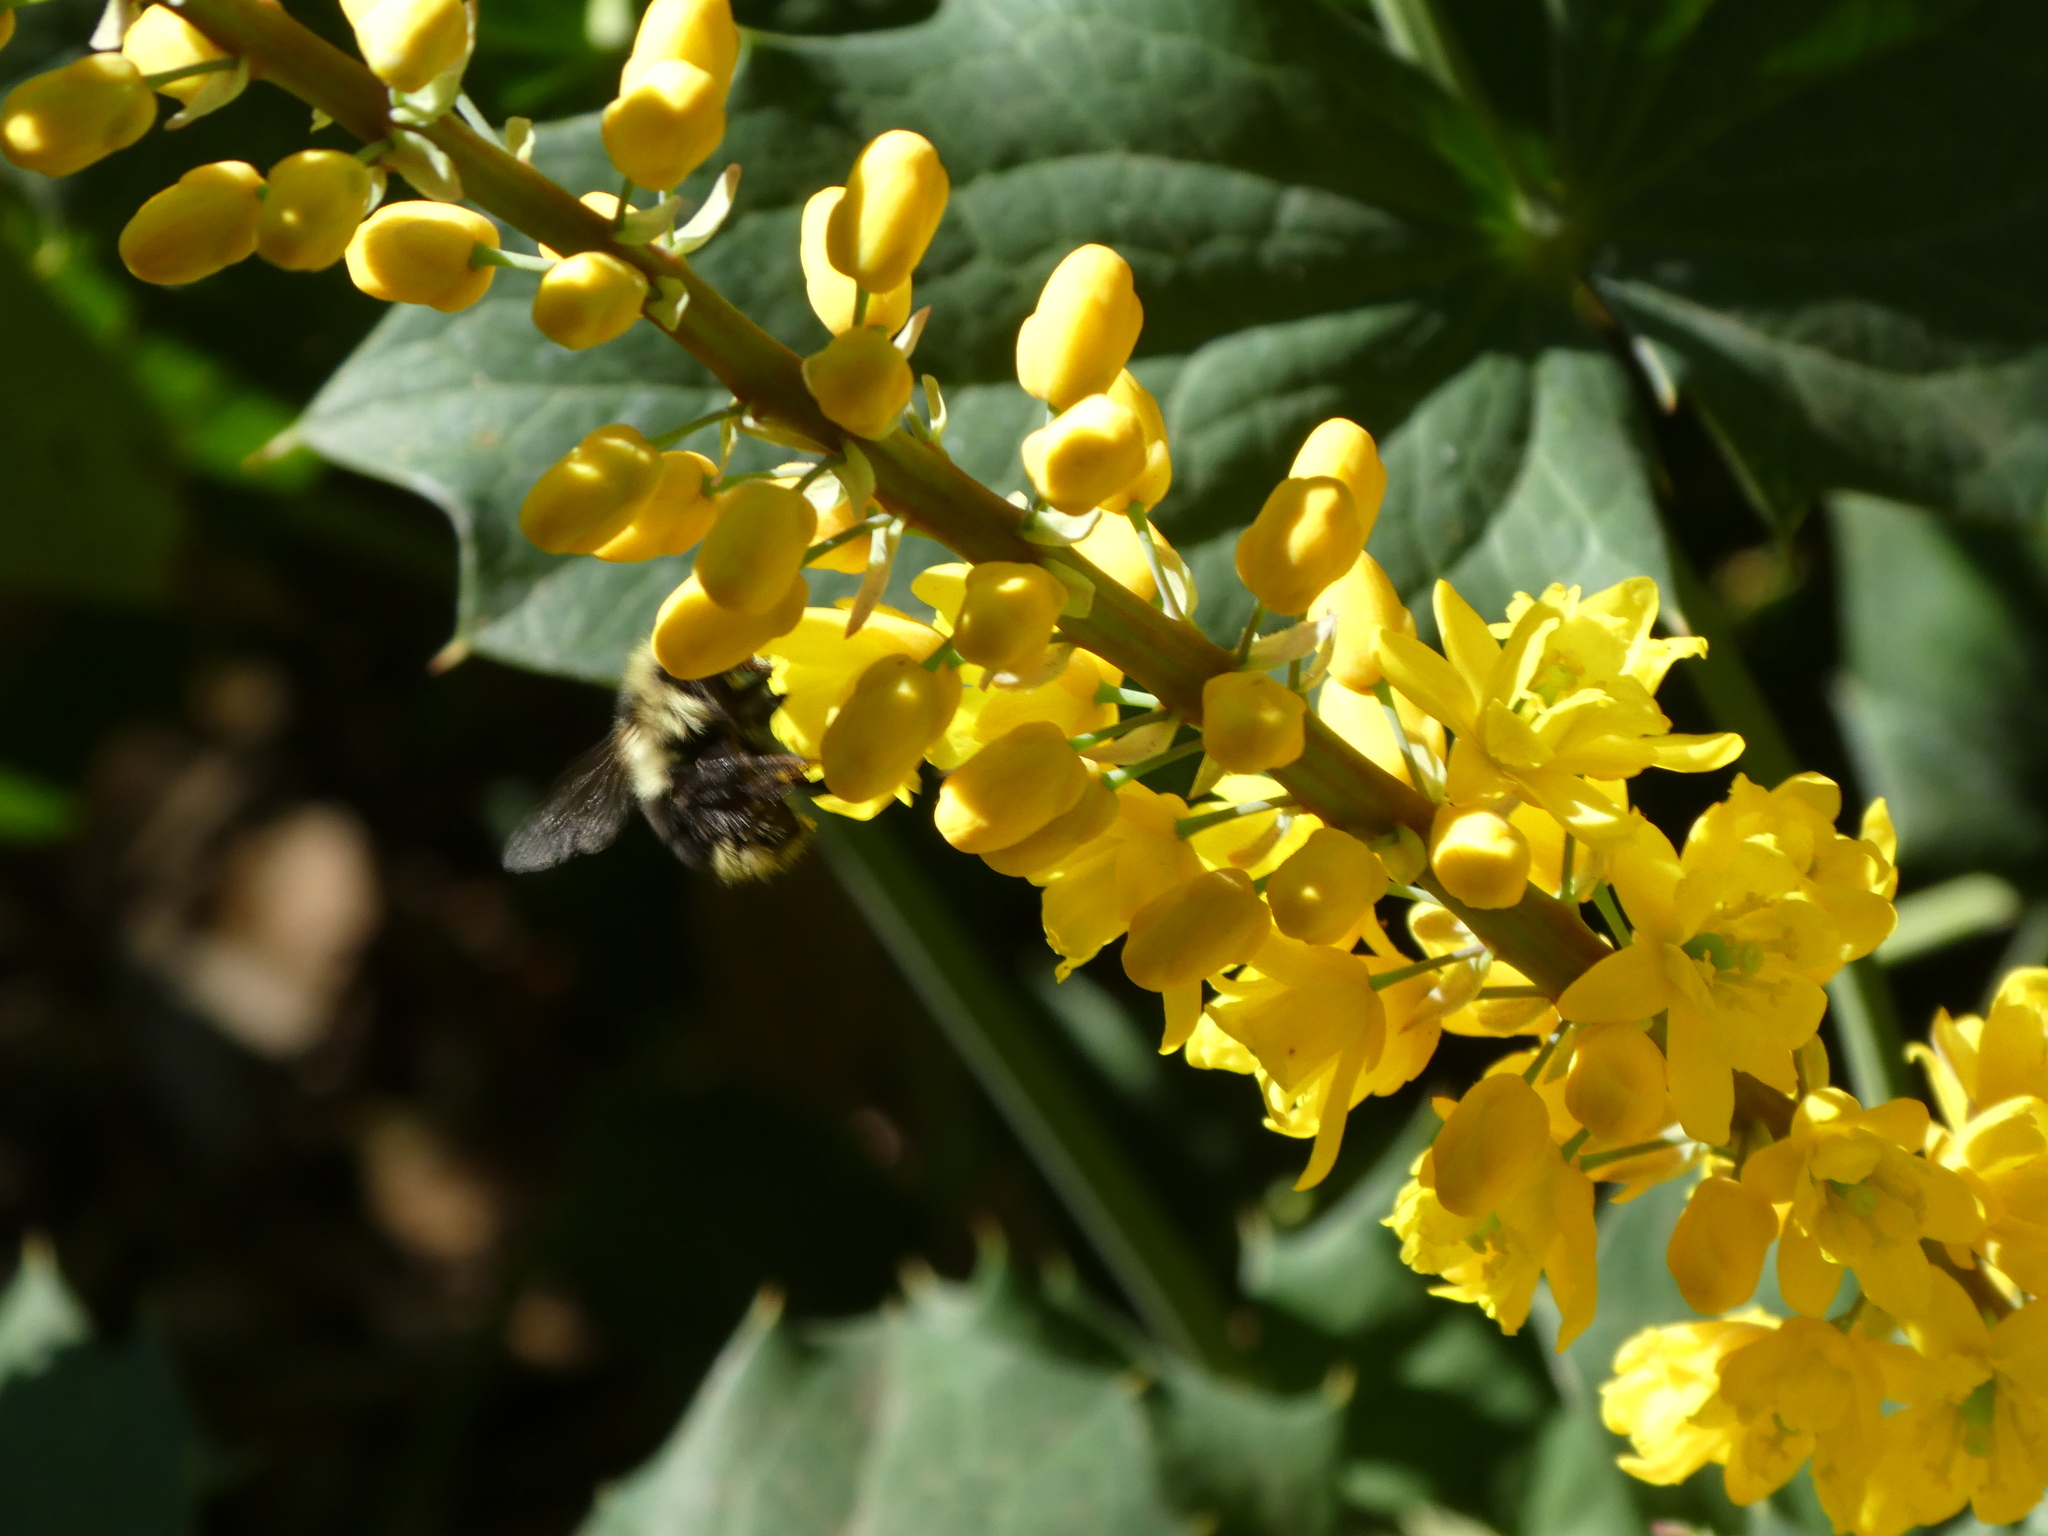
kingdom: Animalia
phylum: Arthropoda
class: Insecta
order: Hymenoptera
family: Apidae
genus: Bombus
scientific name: Bombus melanopygus
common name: Black tail bumble bee
